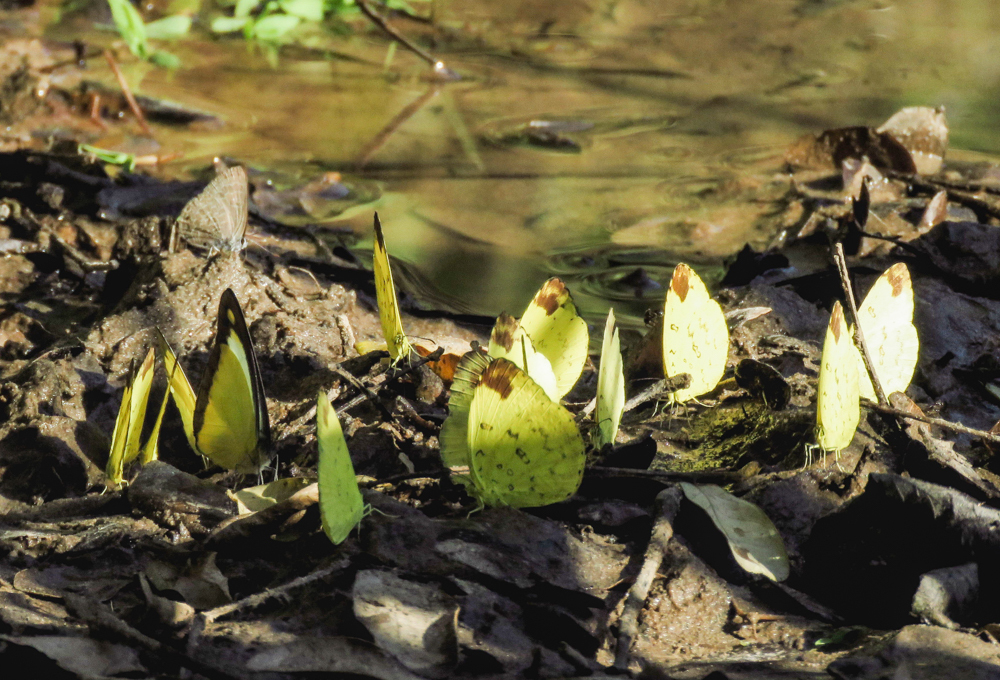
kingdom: Animalia
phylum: Arthropoda
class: Insecta
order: Lepidoptera
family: Pieridae
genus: Eurema
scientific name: Eurema blanda
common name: Three-spot grass yellow
